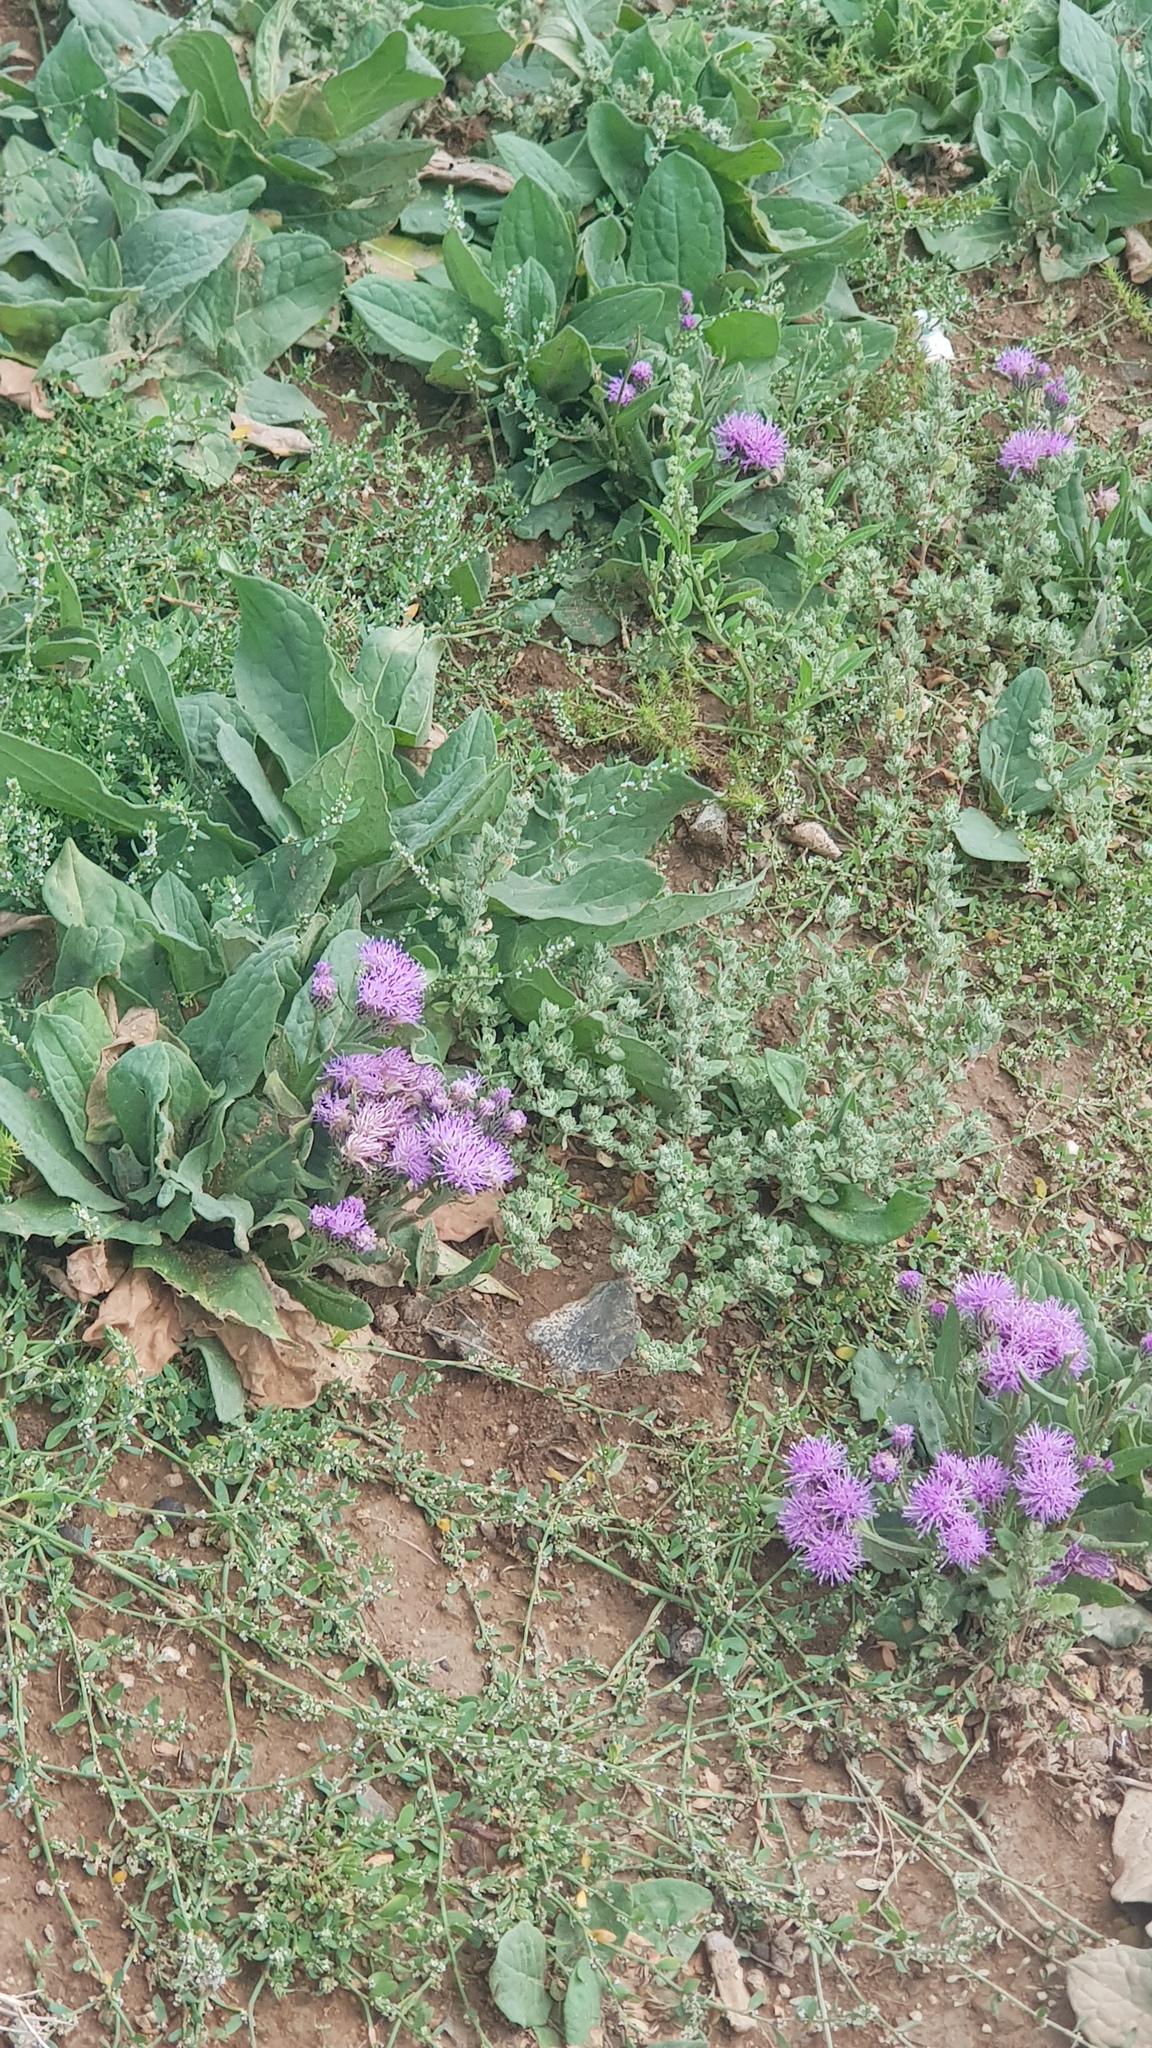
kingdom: Plantae
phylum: Tracheophyta
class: Magnoliopsida
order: Asterales
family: Asteraceae
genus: Saussurea
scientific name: Saussurea amara
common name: Alberta sawwort
